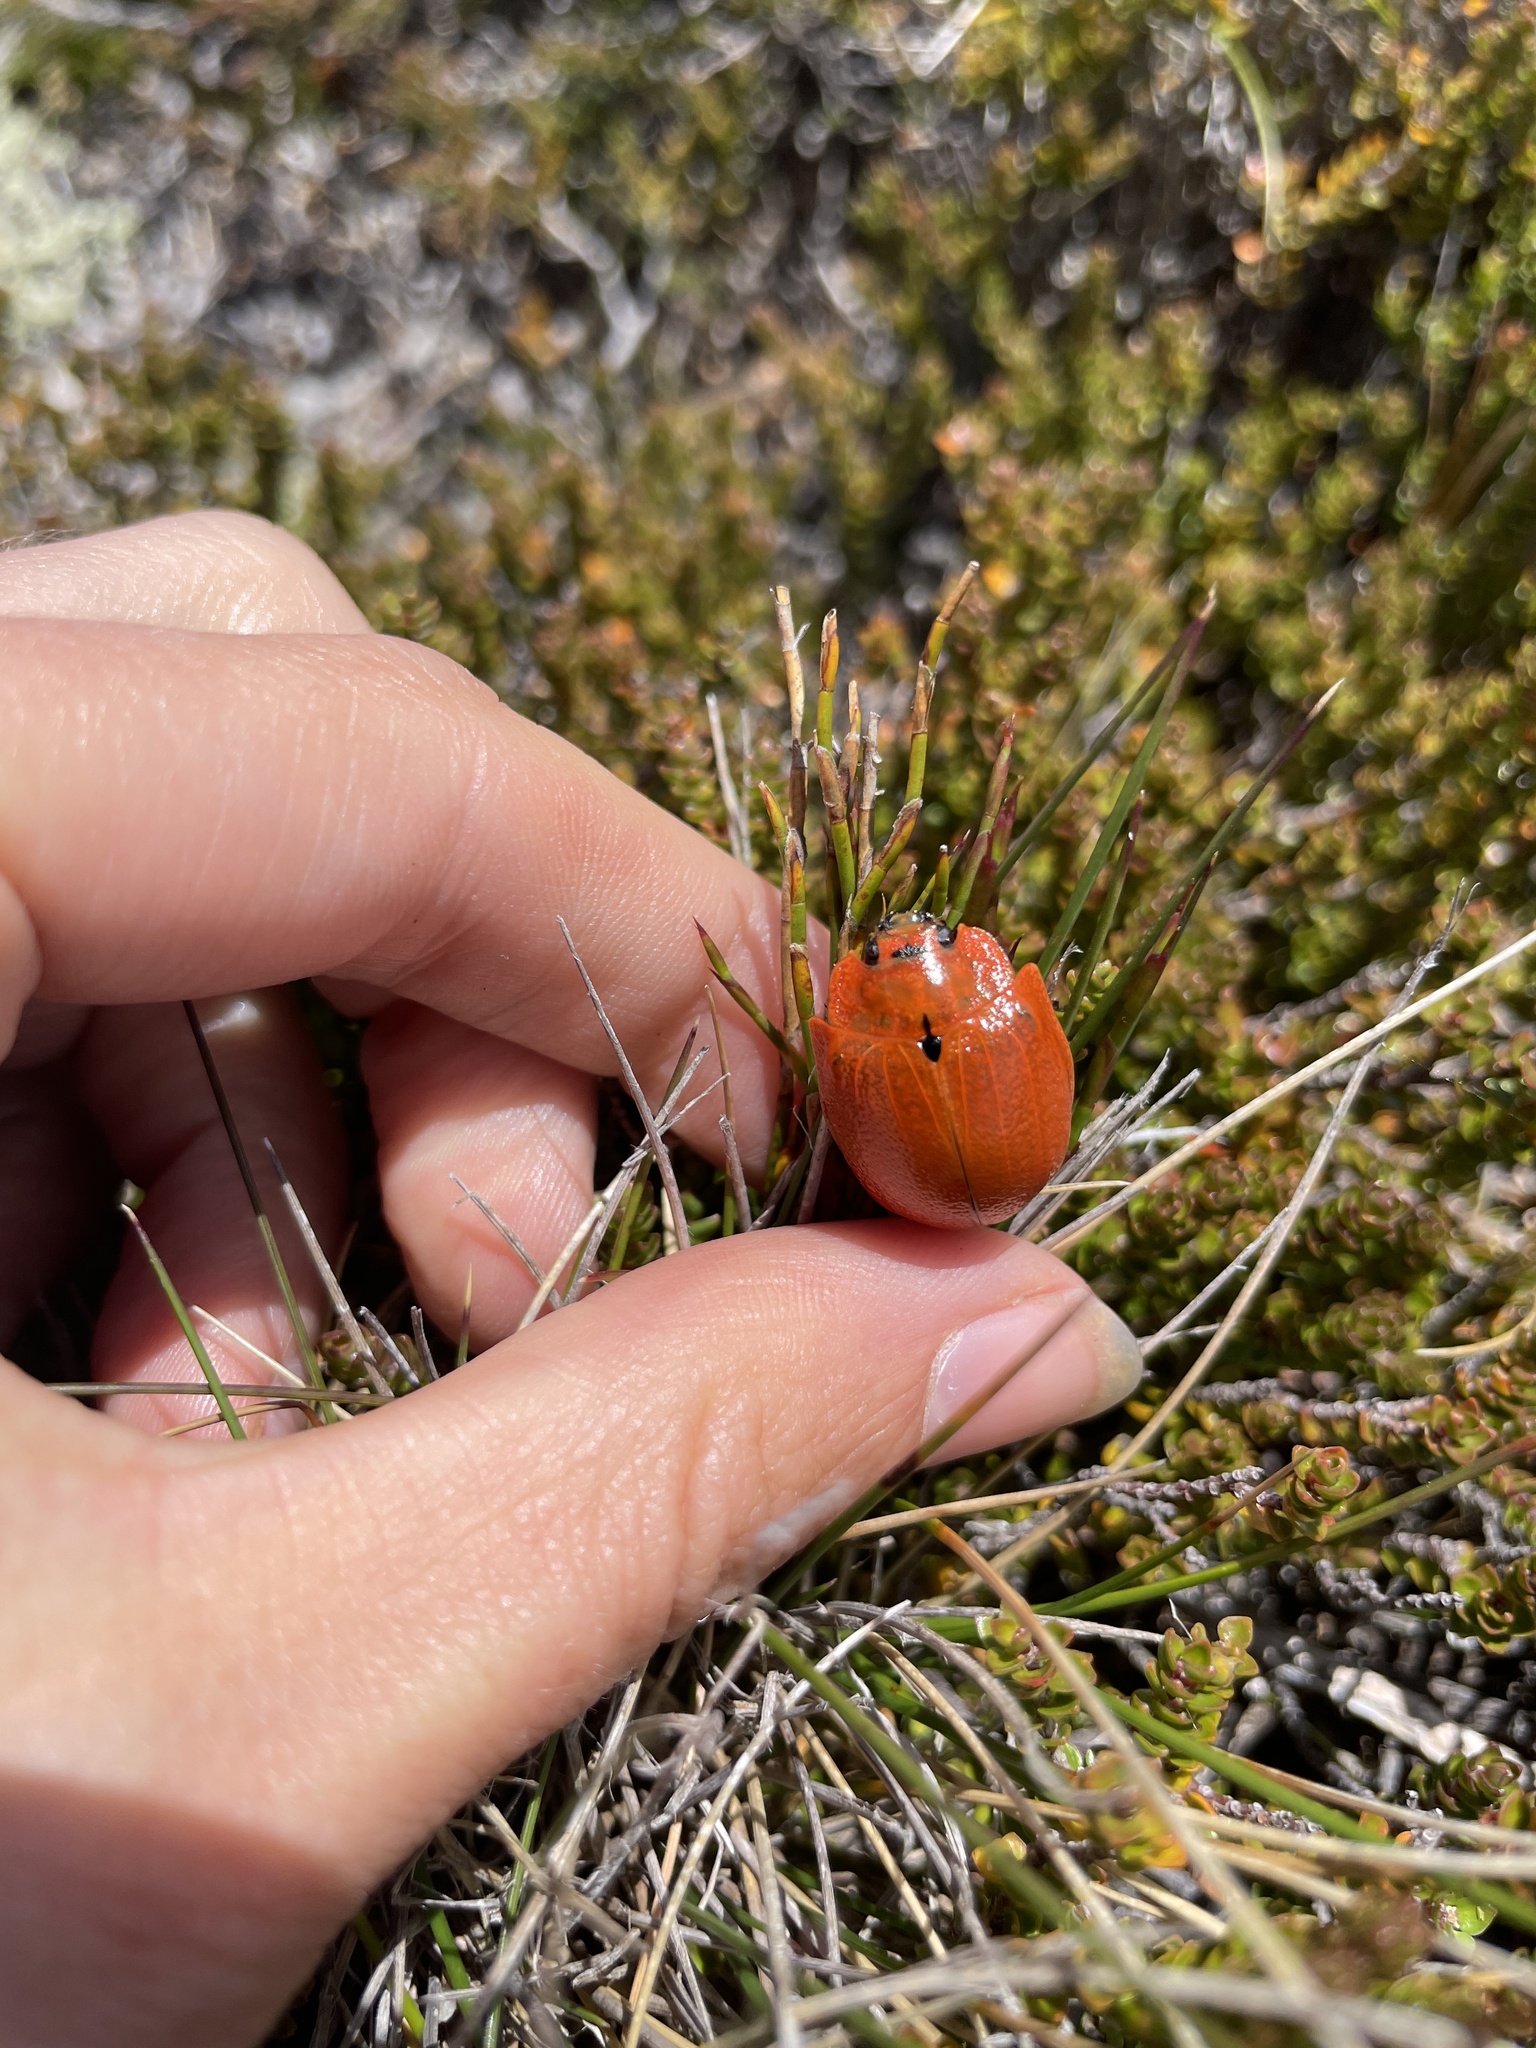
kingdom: Animalia
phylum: Arthropoda
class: Insecta
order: Coleoptera
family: Chrysomelidae
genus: Paropsis
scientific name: Paropsis
